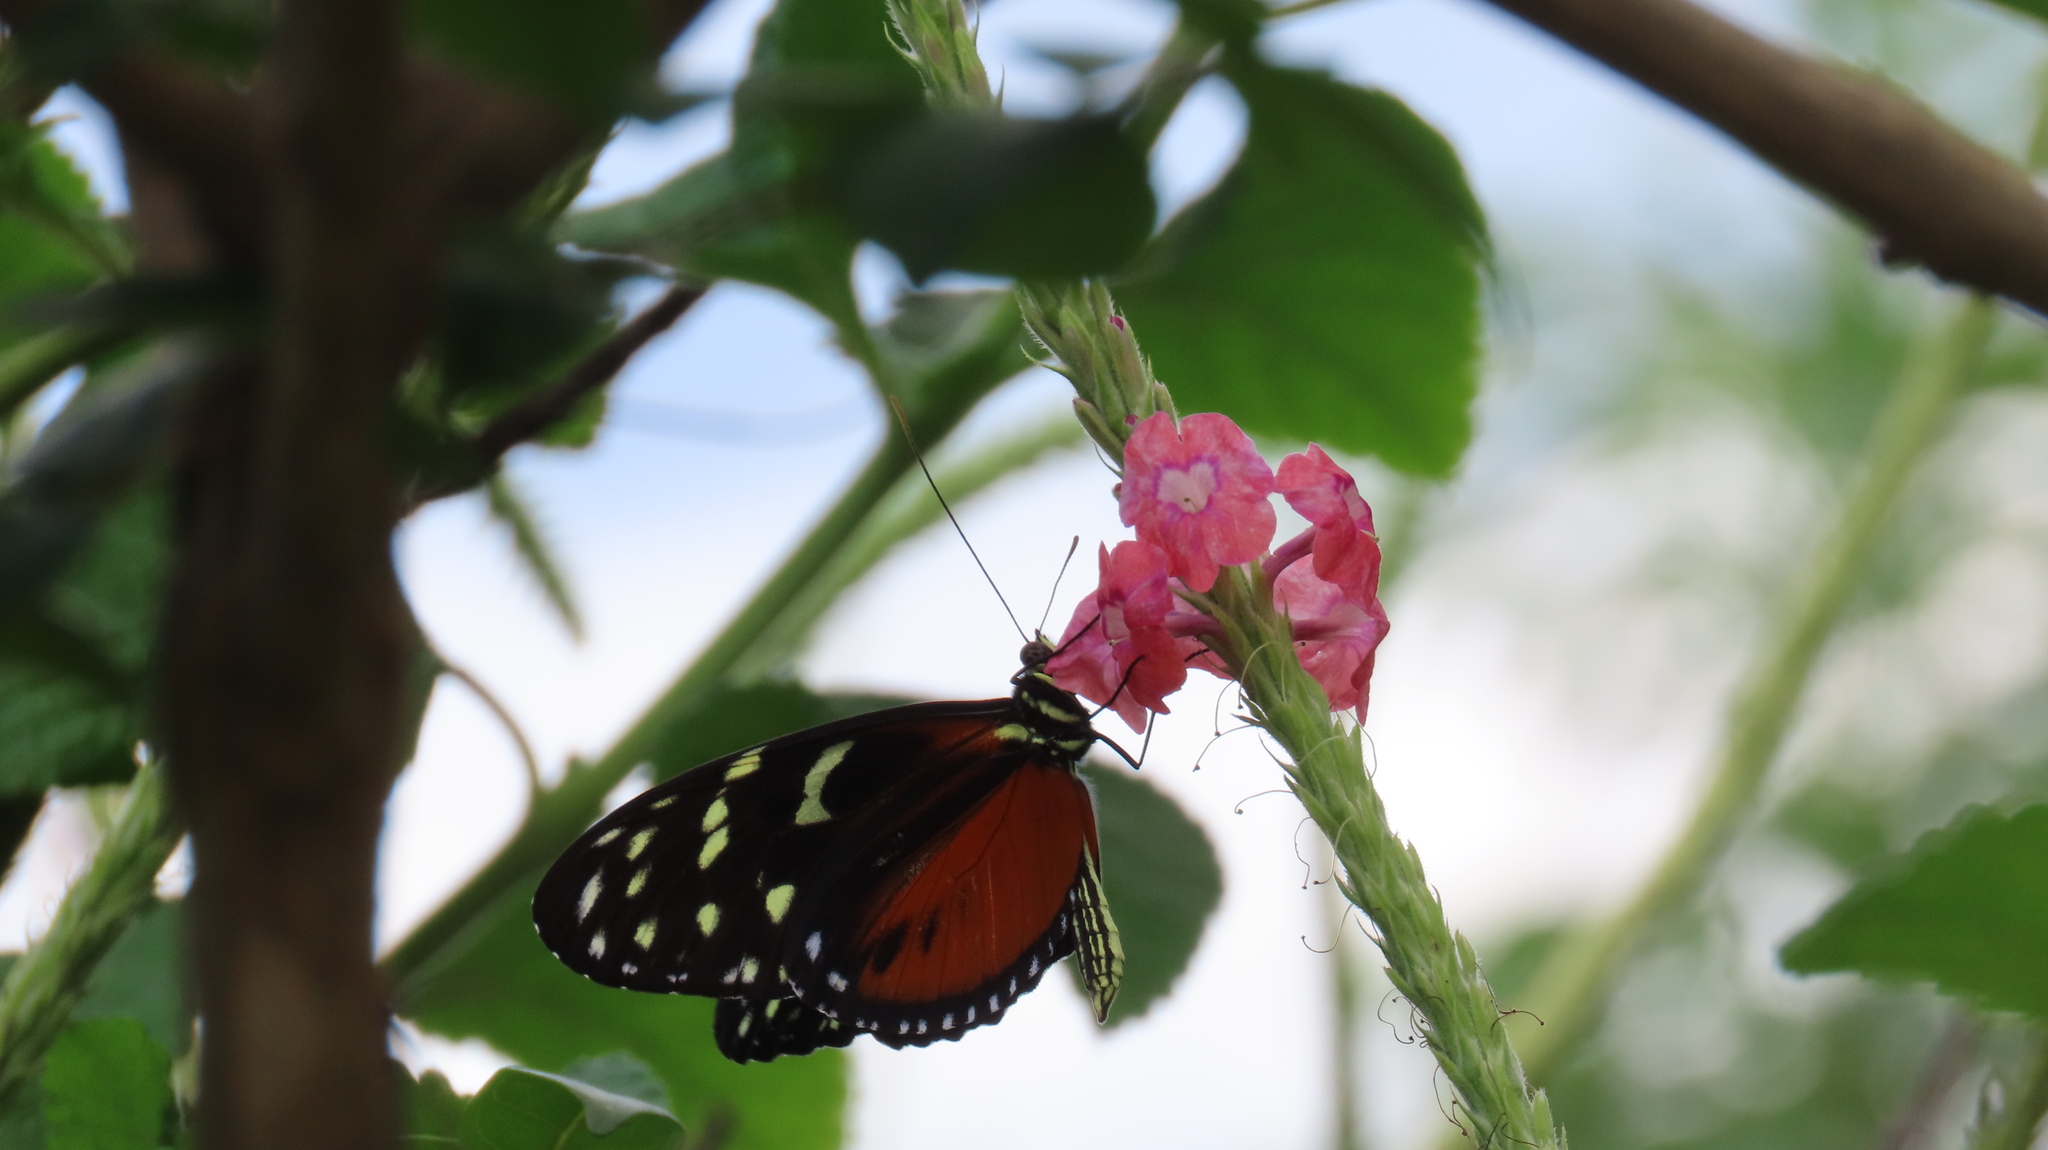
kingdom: Animalia
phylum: Arthropoda
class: Insecta
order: Lepidoptera
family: Nymphalidae
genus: Heliconius
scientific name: Heliconius hecale
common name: Tiger longwing
